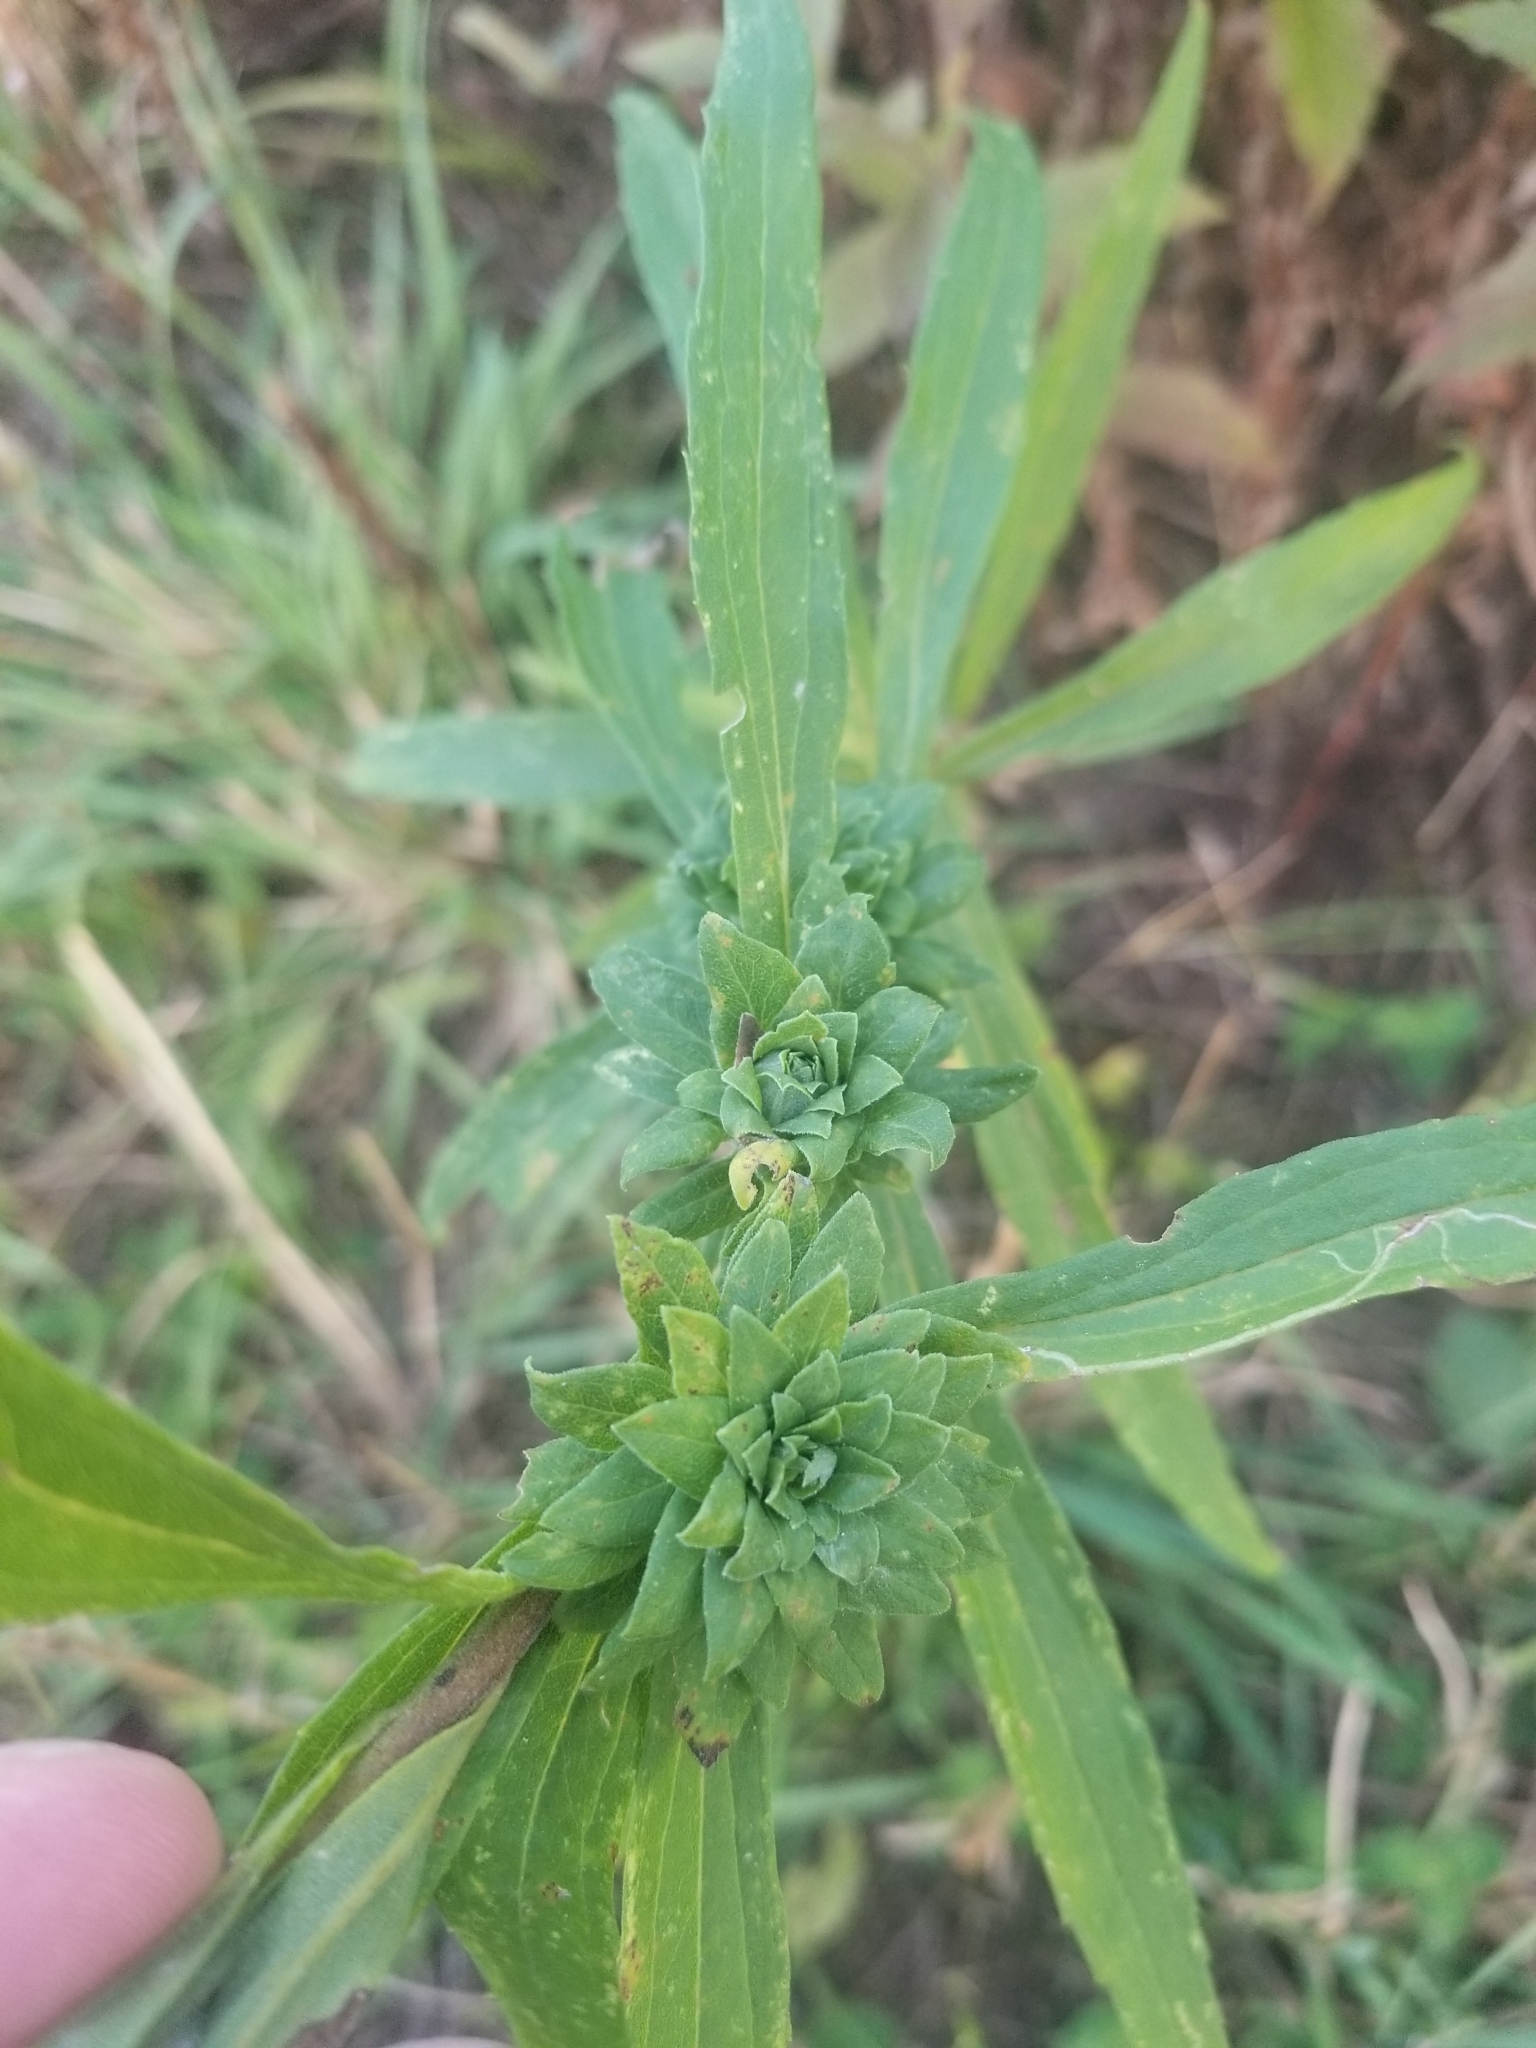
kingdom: Animalia
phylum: Arthropoda
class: Insecta
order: Diptera
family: Tephritidae
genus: Procecidochares
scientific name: Procecidochares atra
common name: Goldenrod brussels sprout gall fly
